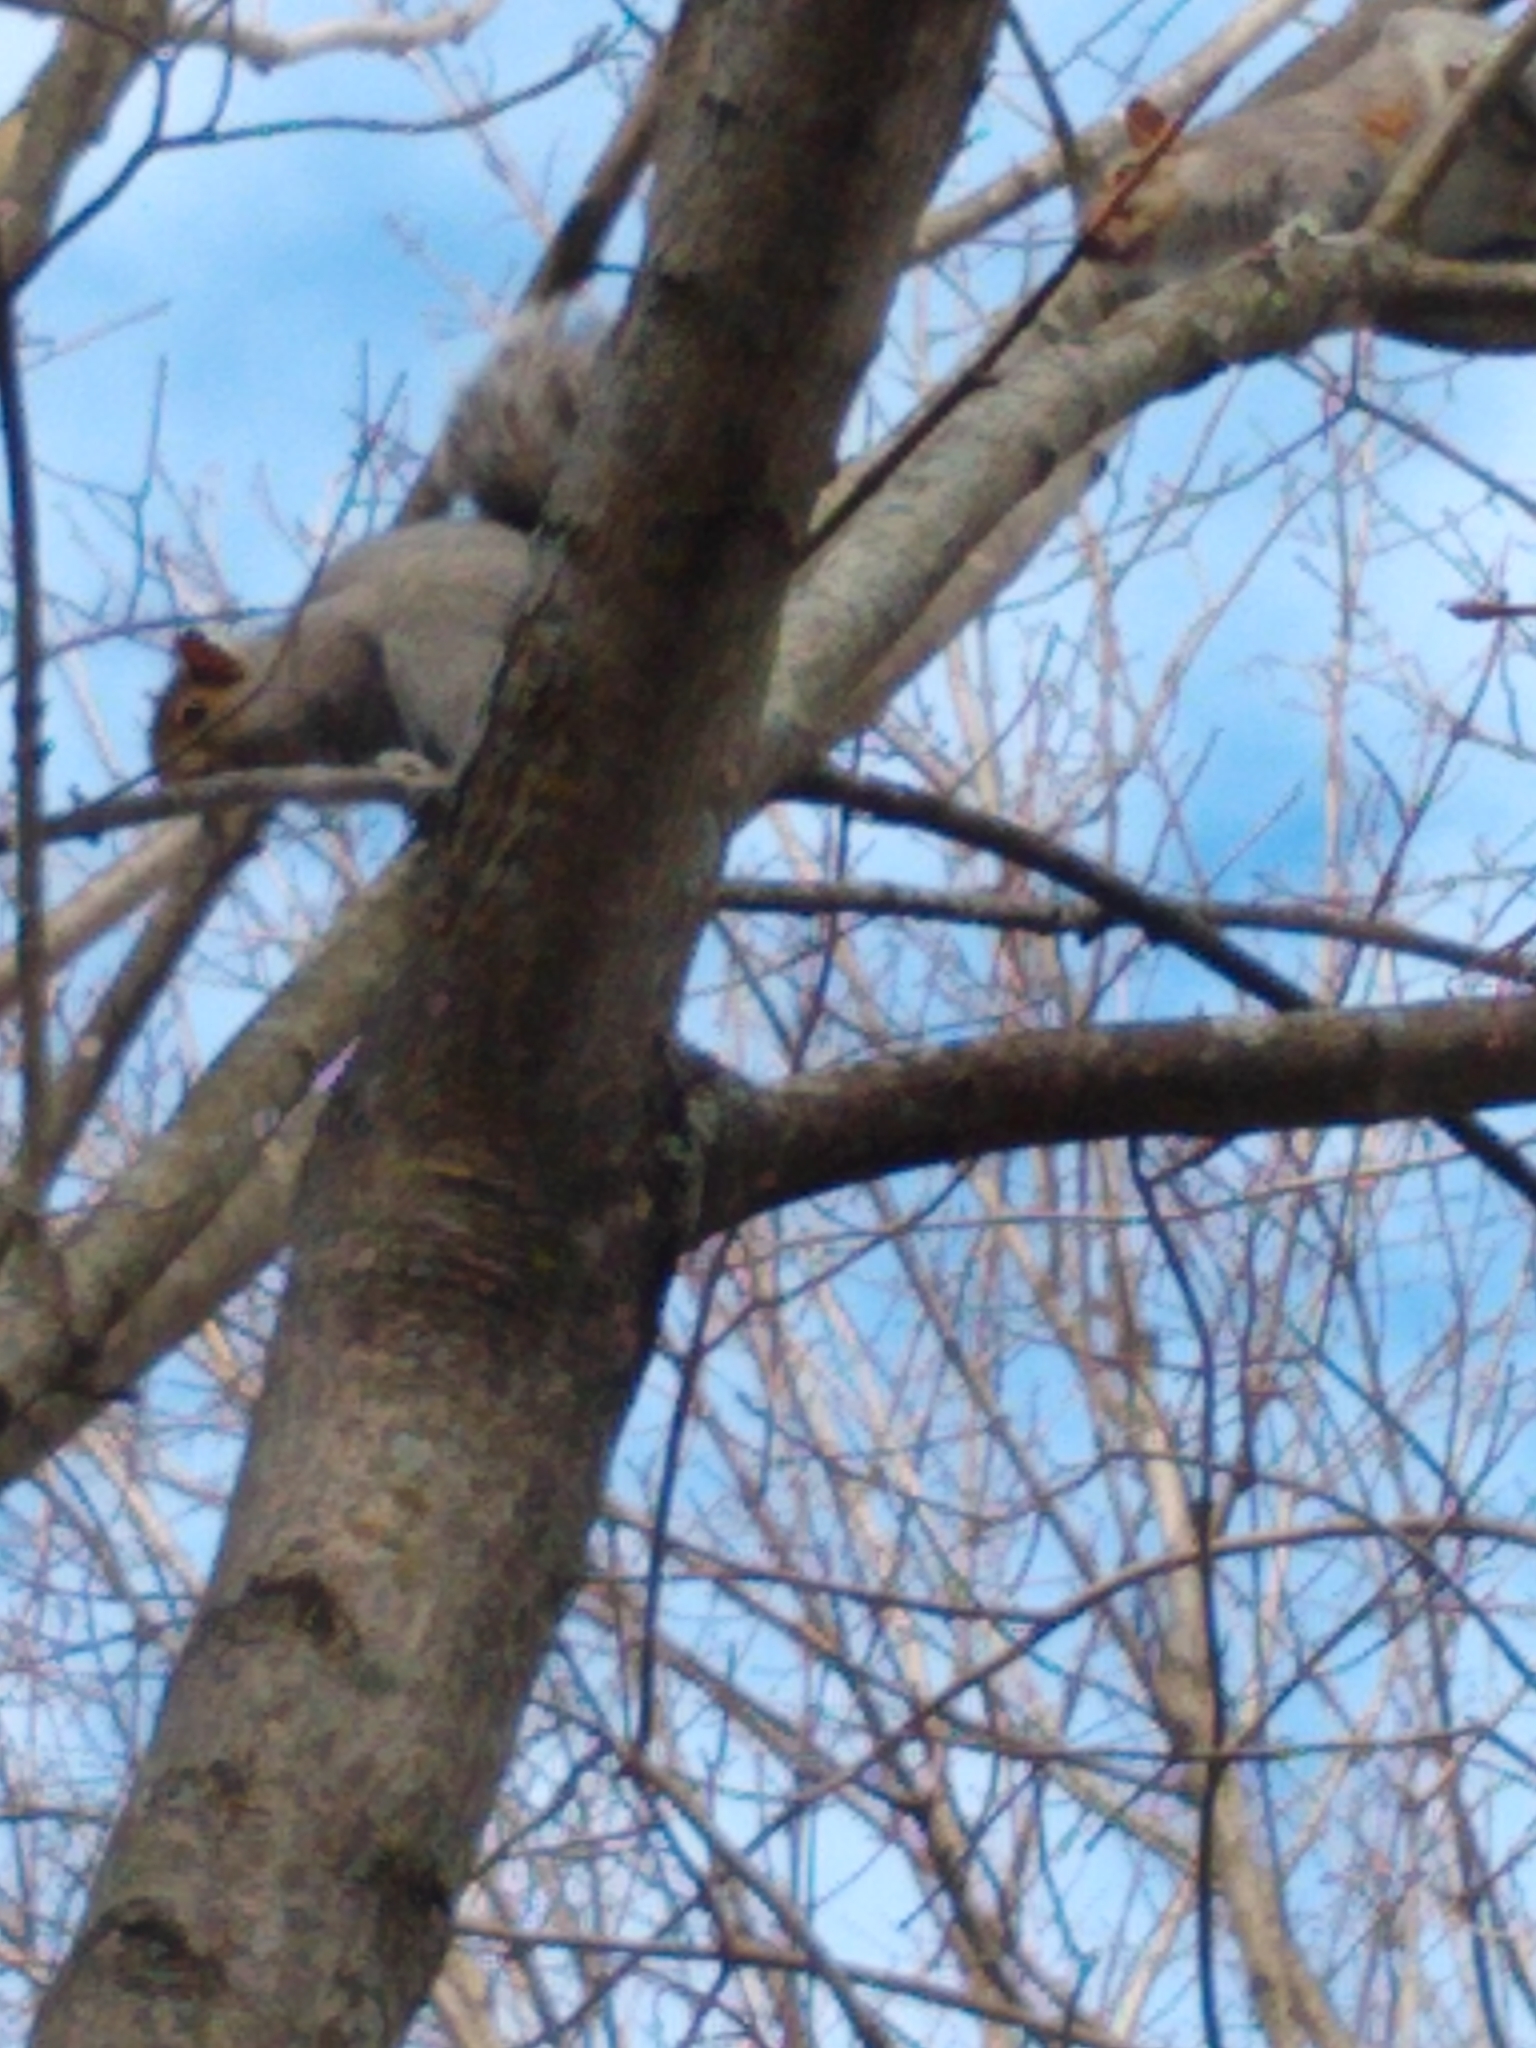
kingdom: Animalia
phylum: Chordata
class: Mammalia
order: Rodentia
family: Sciuridae
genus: Sciurus
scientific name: Sciurus carolinensis
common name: Eastern gray squirrel
